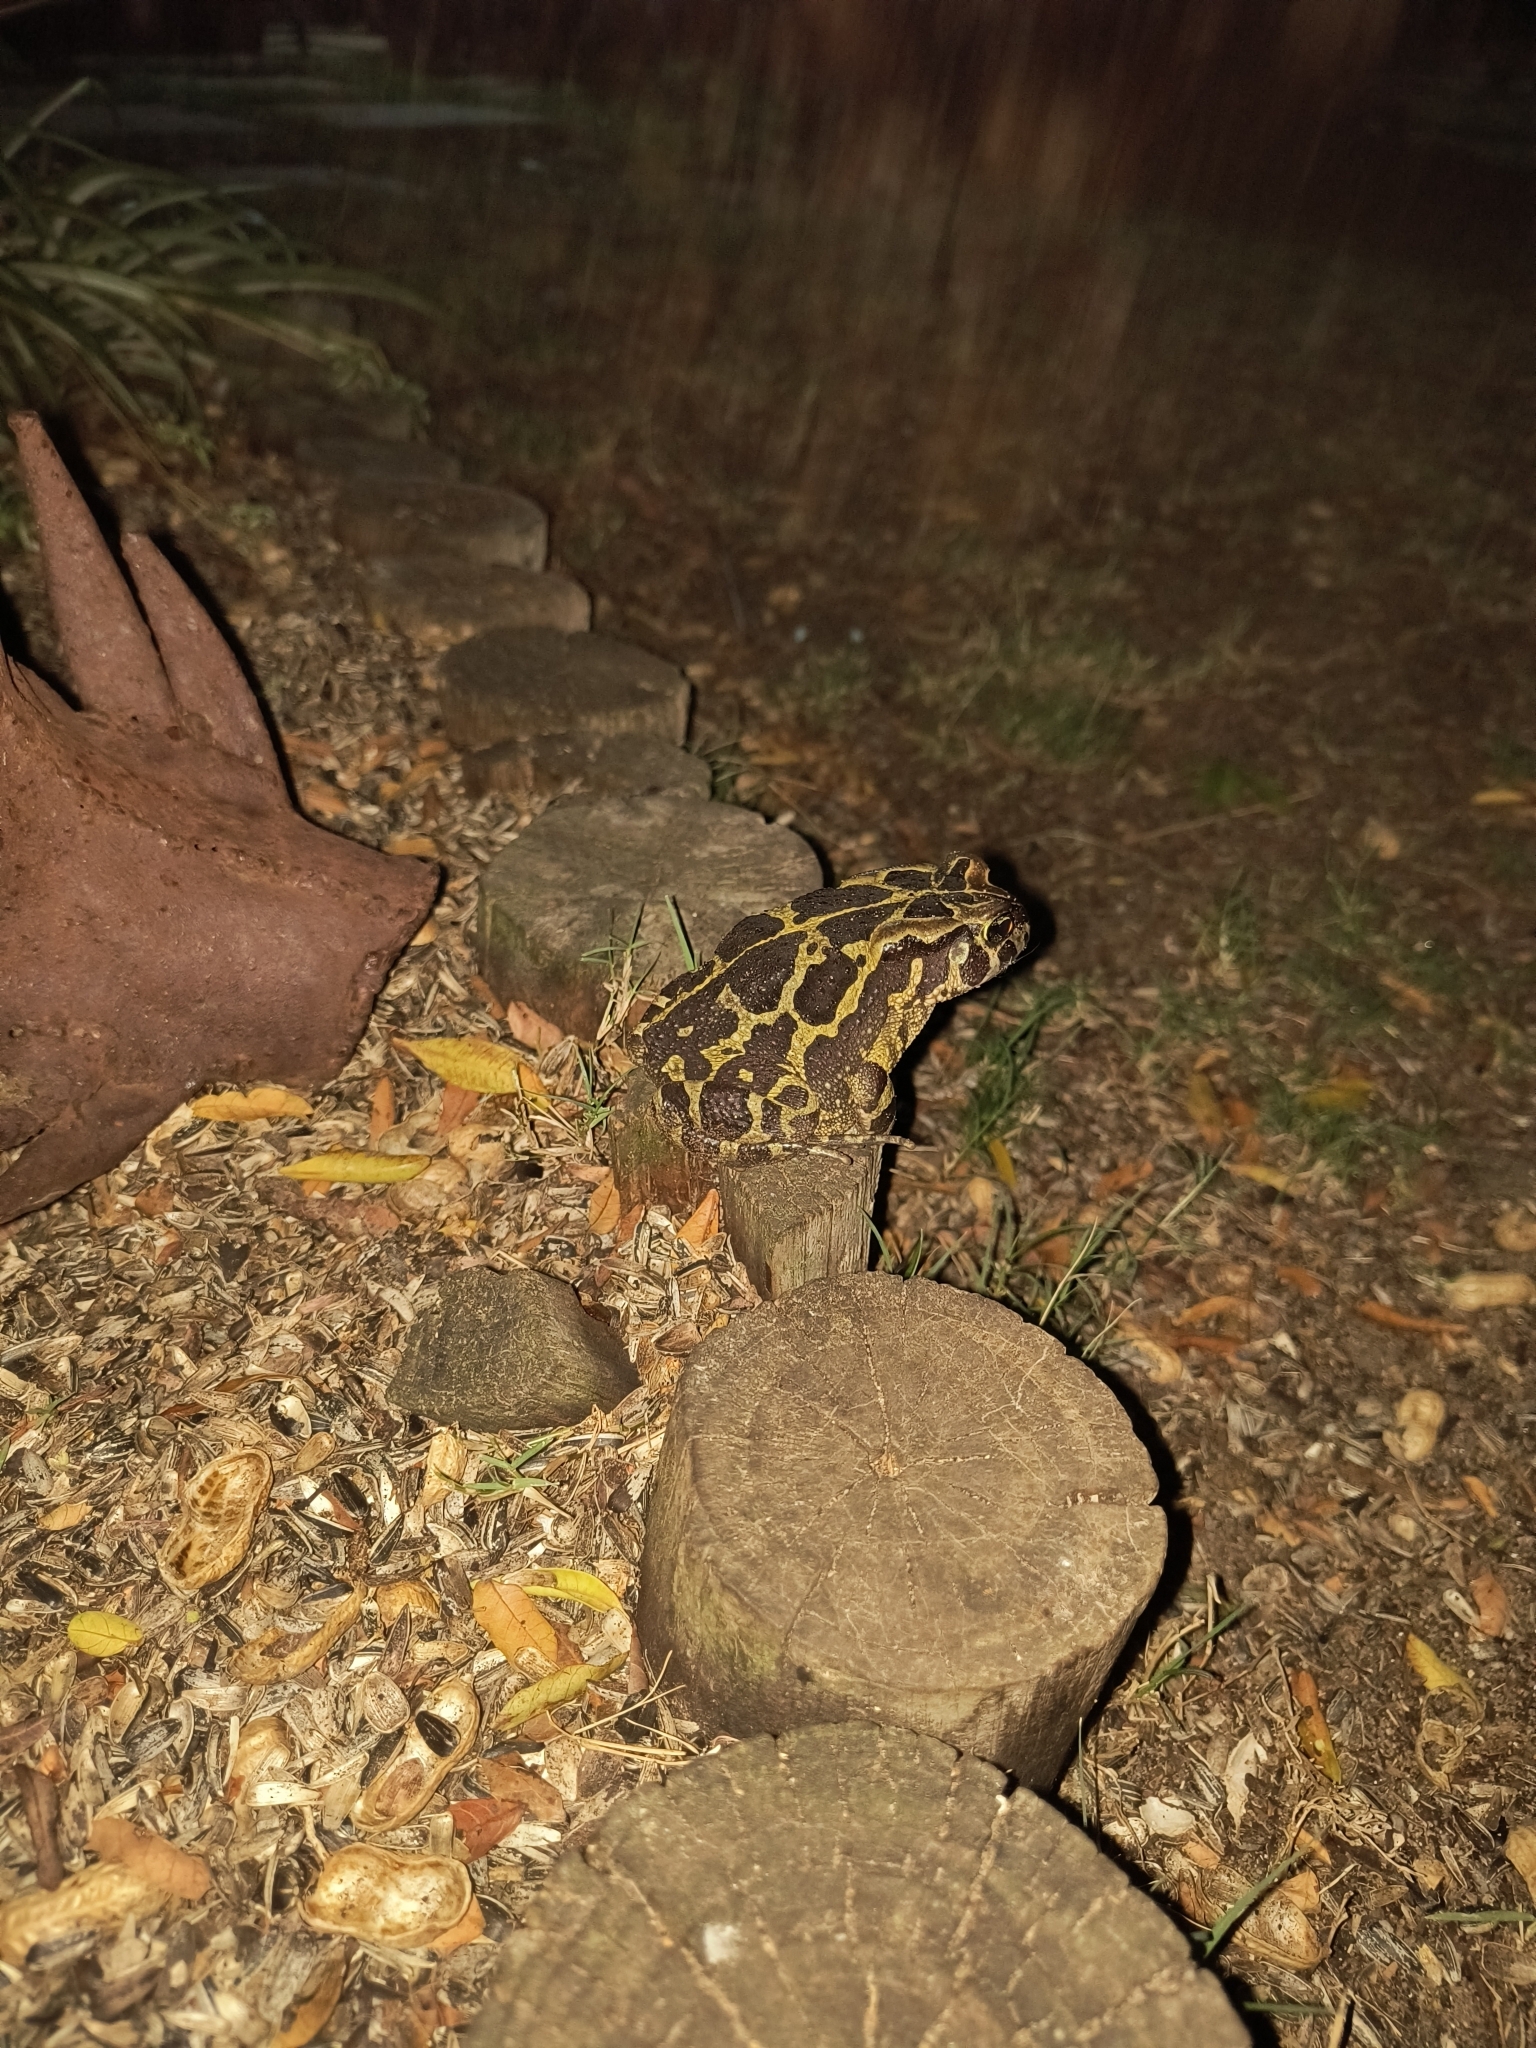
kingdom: Animalia
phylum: Chordata
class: Amphibia
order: Anura
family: Bufonidae
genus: Sclerophrys
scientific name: Sclerophrys pantherina
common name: Panther toad
